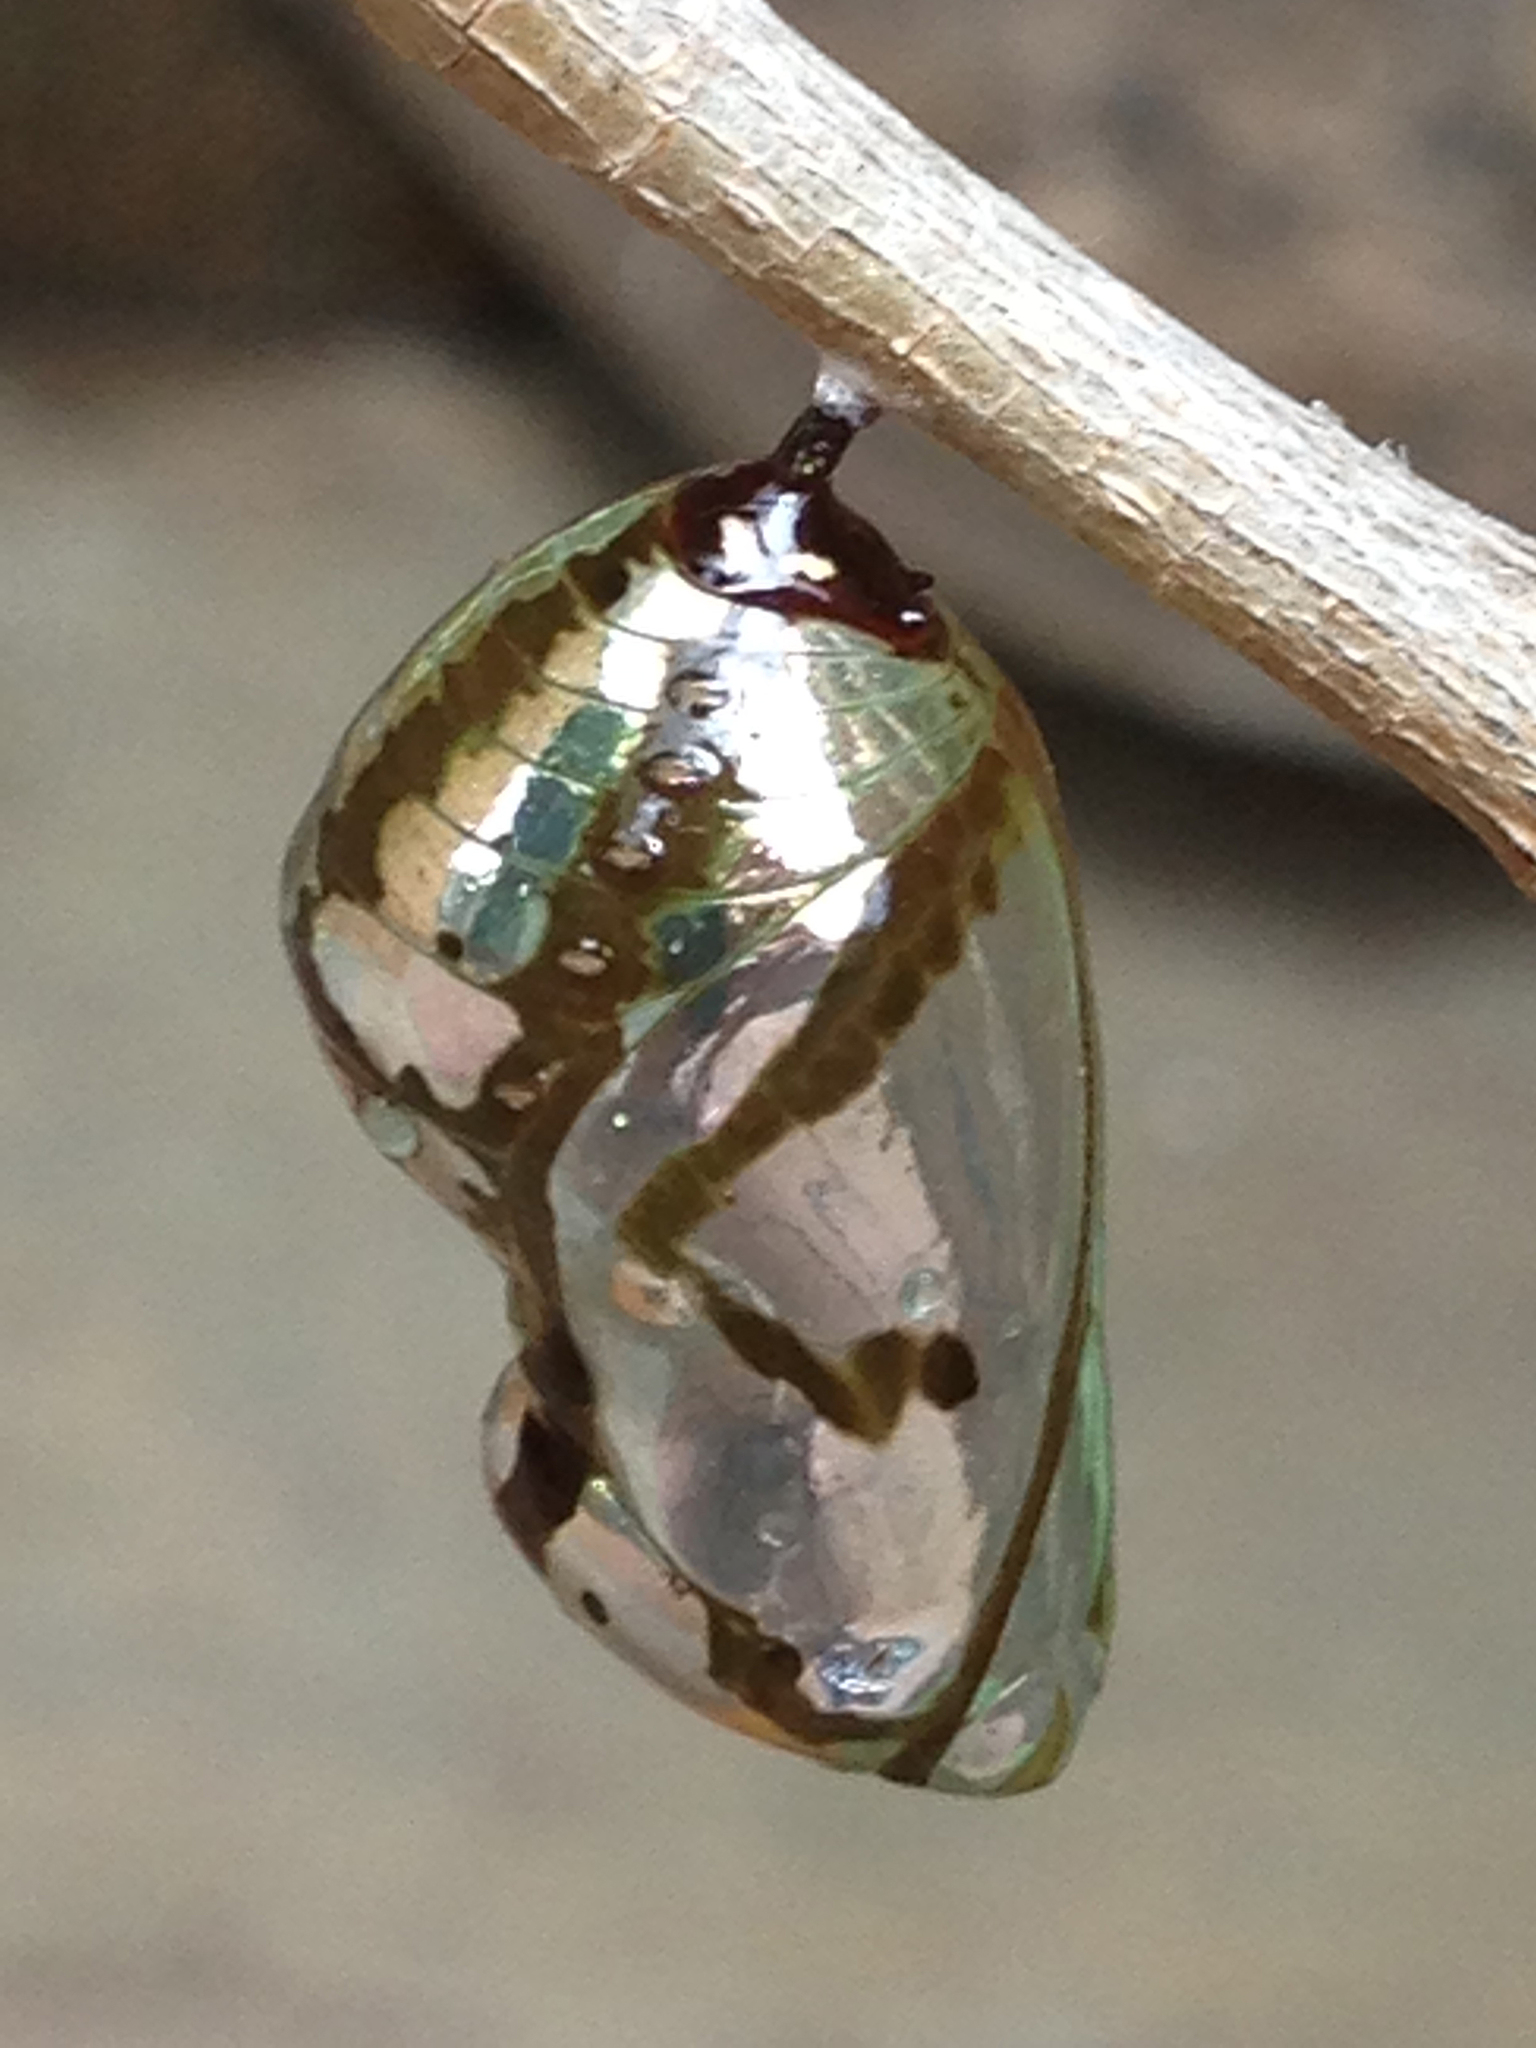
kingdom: Animalia
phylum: Arthropoda
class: Insecta
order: Lepidoptera
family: Nymphalidae
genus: Euploea
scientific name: Euploea core
